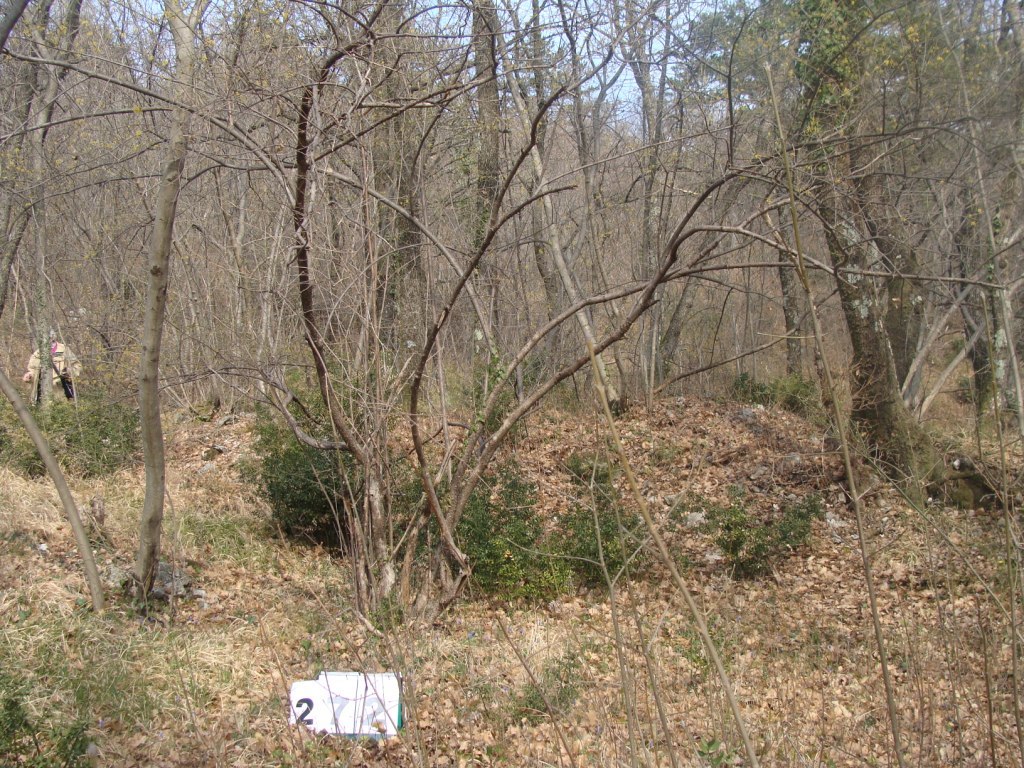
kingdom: Plantae
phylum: Tracheophyta
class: Magnoliopsida
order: Cornales
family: Cornaceae
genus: Cornus
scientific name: Cornus mas
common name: Cornelian-cherry
